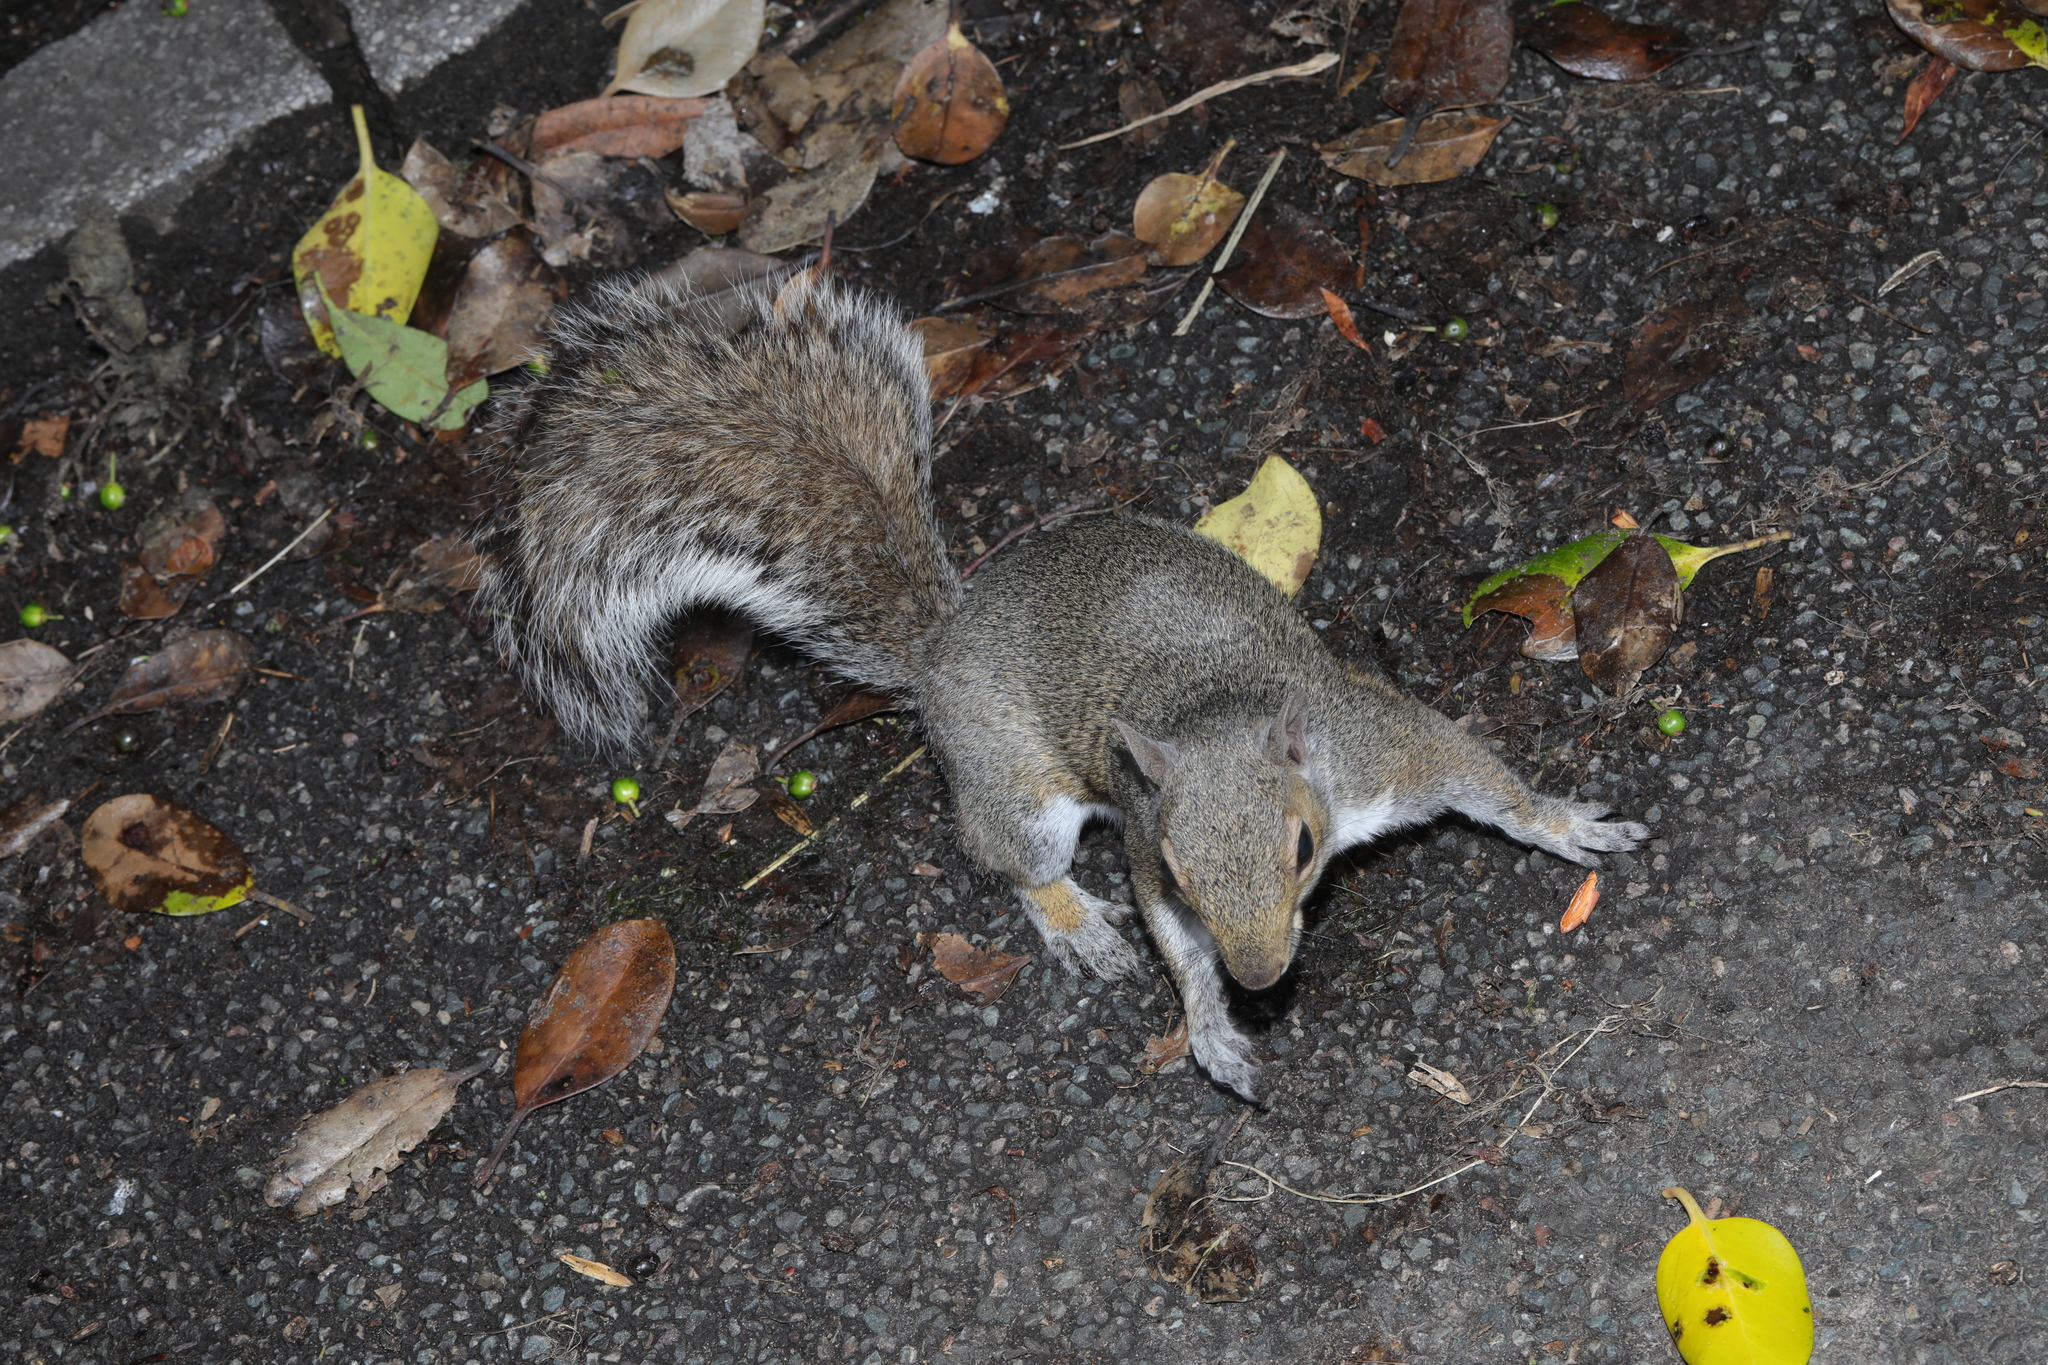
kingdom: Animalia
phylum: Chordata
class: Mammalia
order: Rodentia
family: Sciuridae
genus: Sciurus
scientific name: Sciurus carolinensis
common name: Eastern gray squirrel
